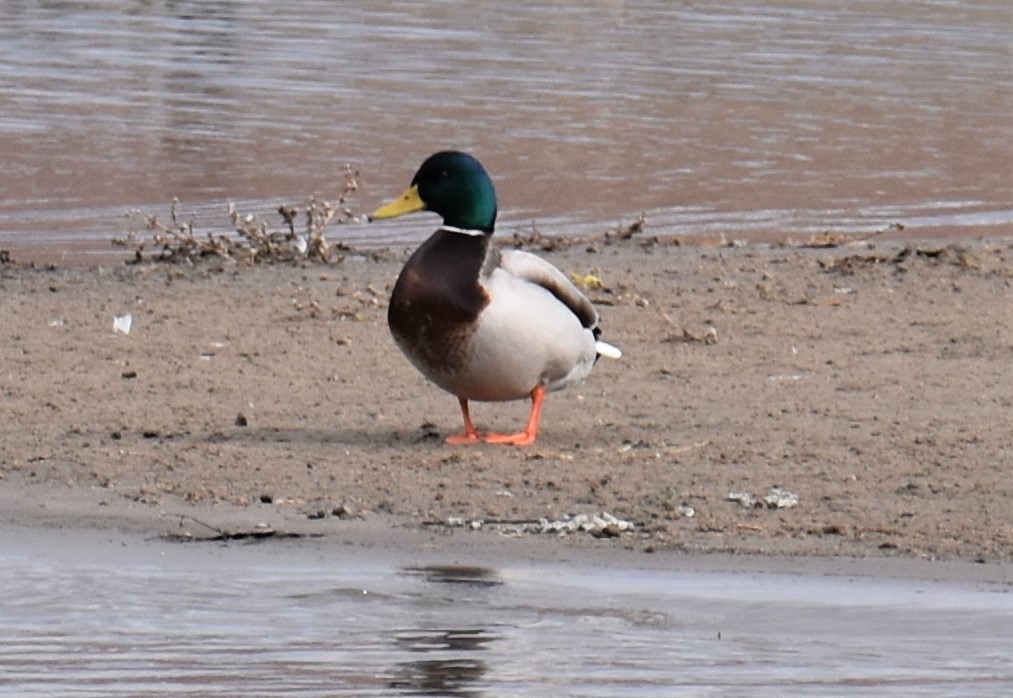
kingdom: Animalia
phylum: Chordata
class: Aves
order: Anseriformes
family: Anatidae
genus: Anas
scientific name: Anas platyrhynchos
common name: Mallard
